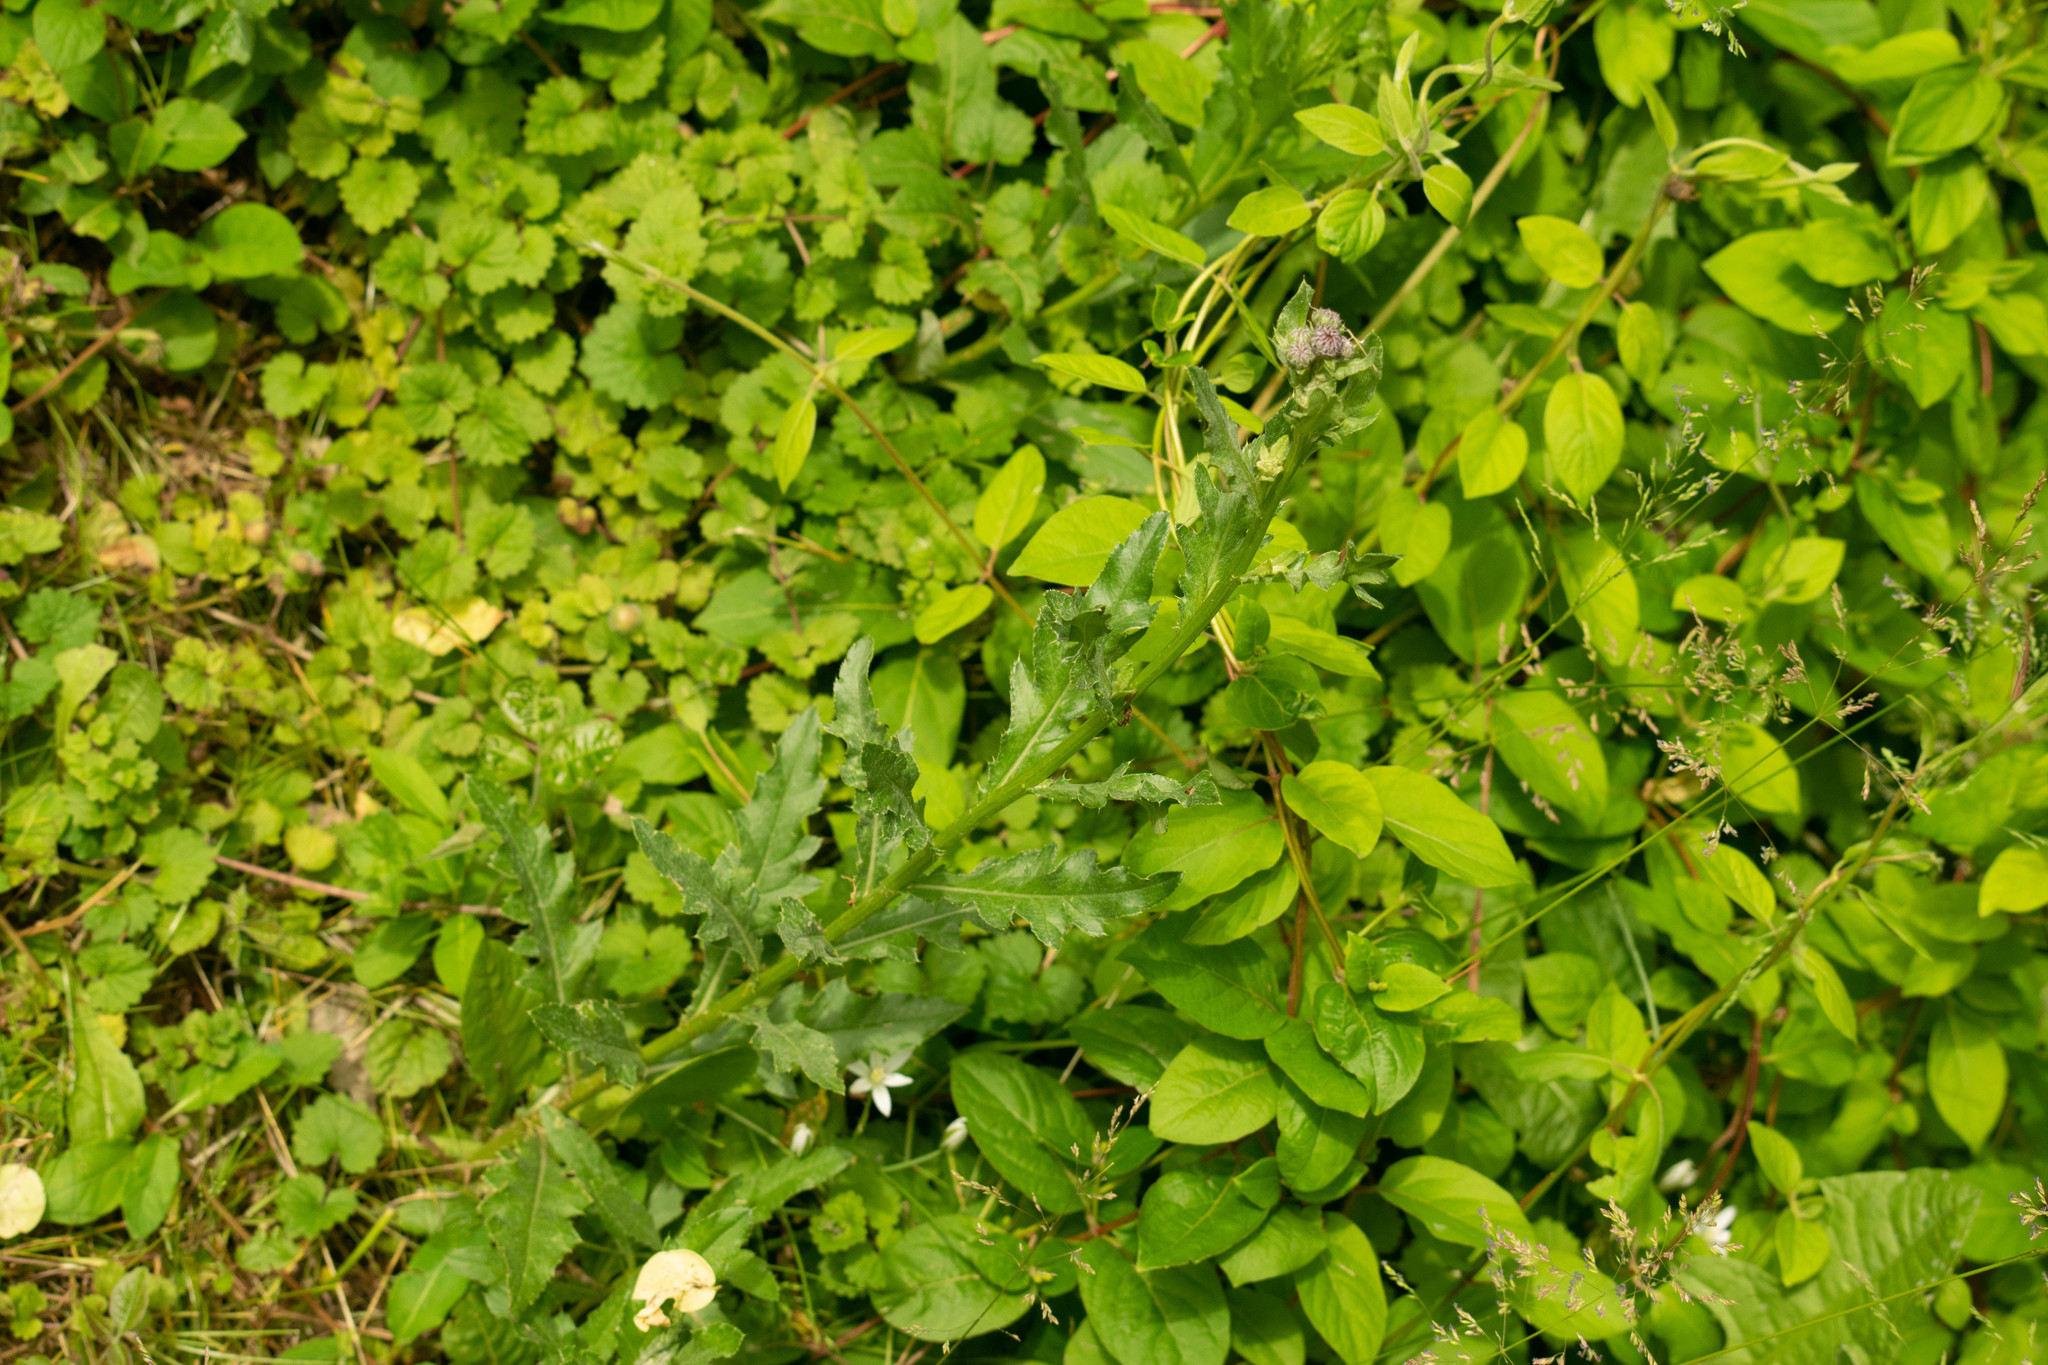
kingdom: Plantae
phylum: Tracheophyta
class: Magnoliopsida
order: Asterales
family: Asteraceae
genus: Cirsium
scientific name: Cirsium arvense
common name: Creeping thistle
